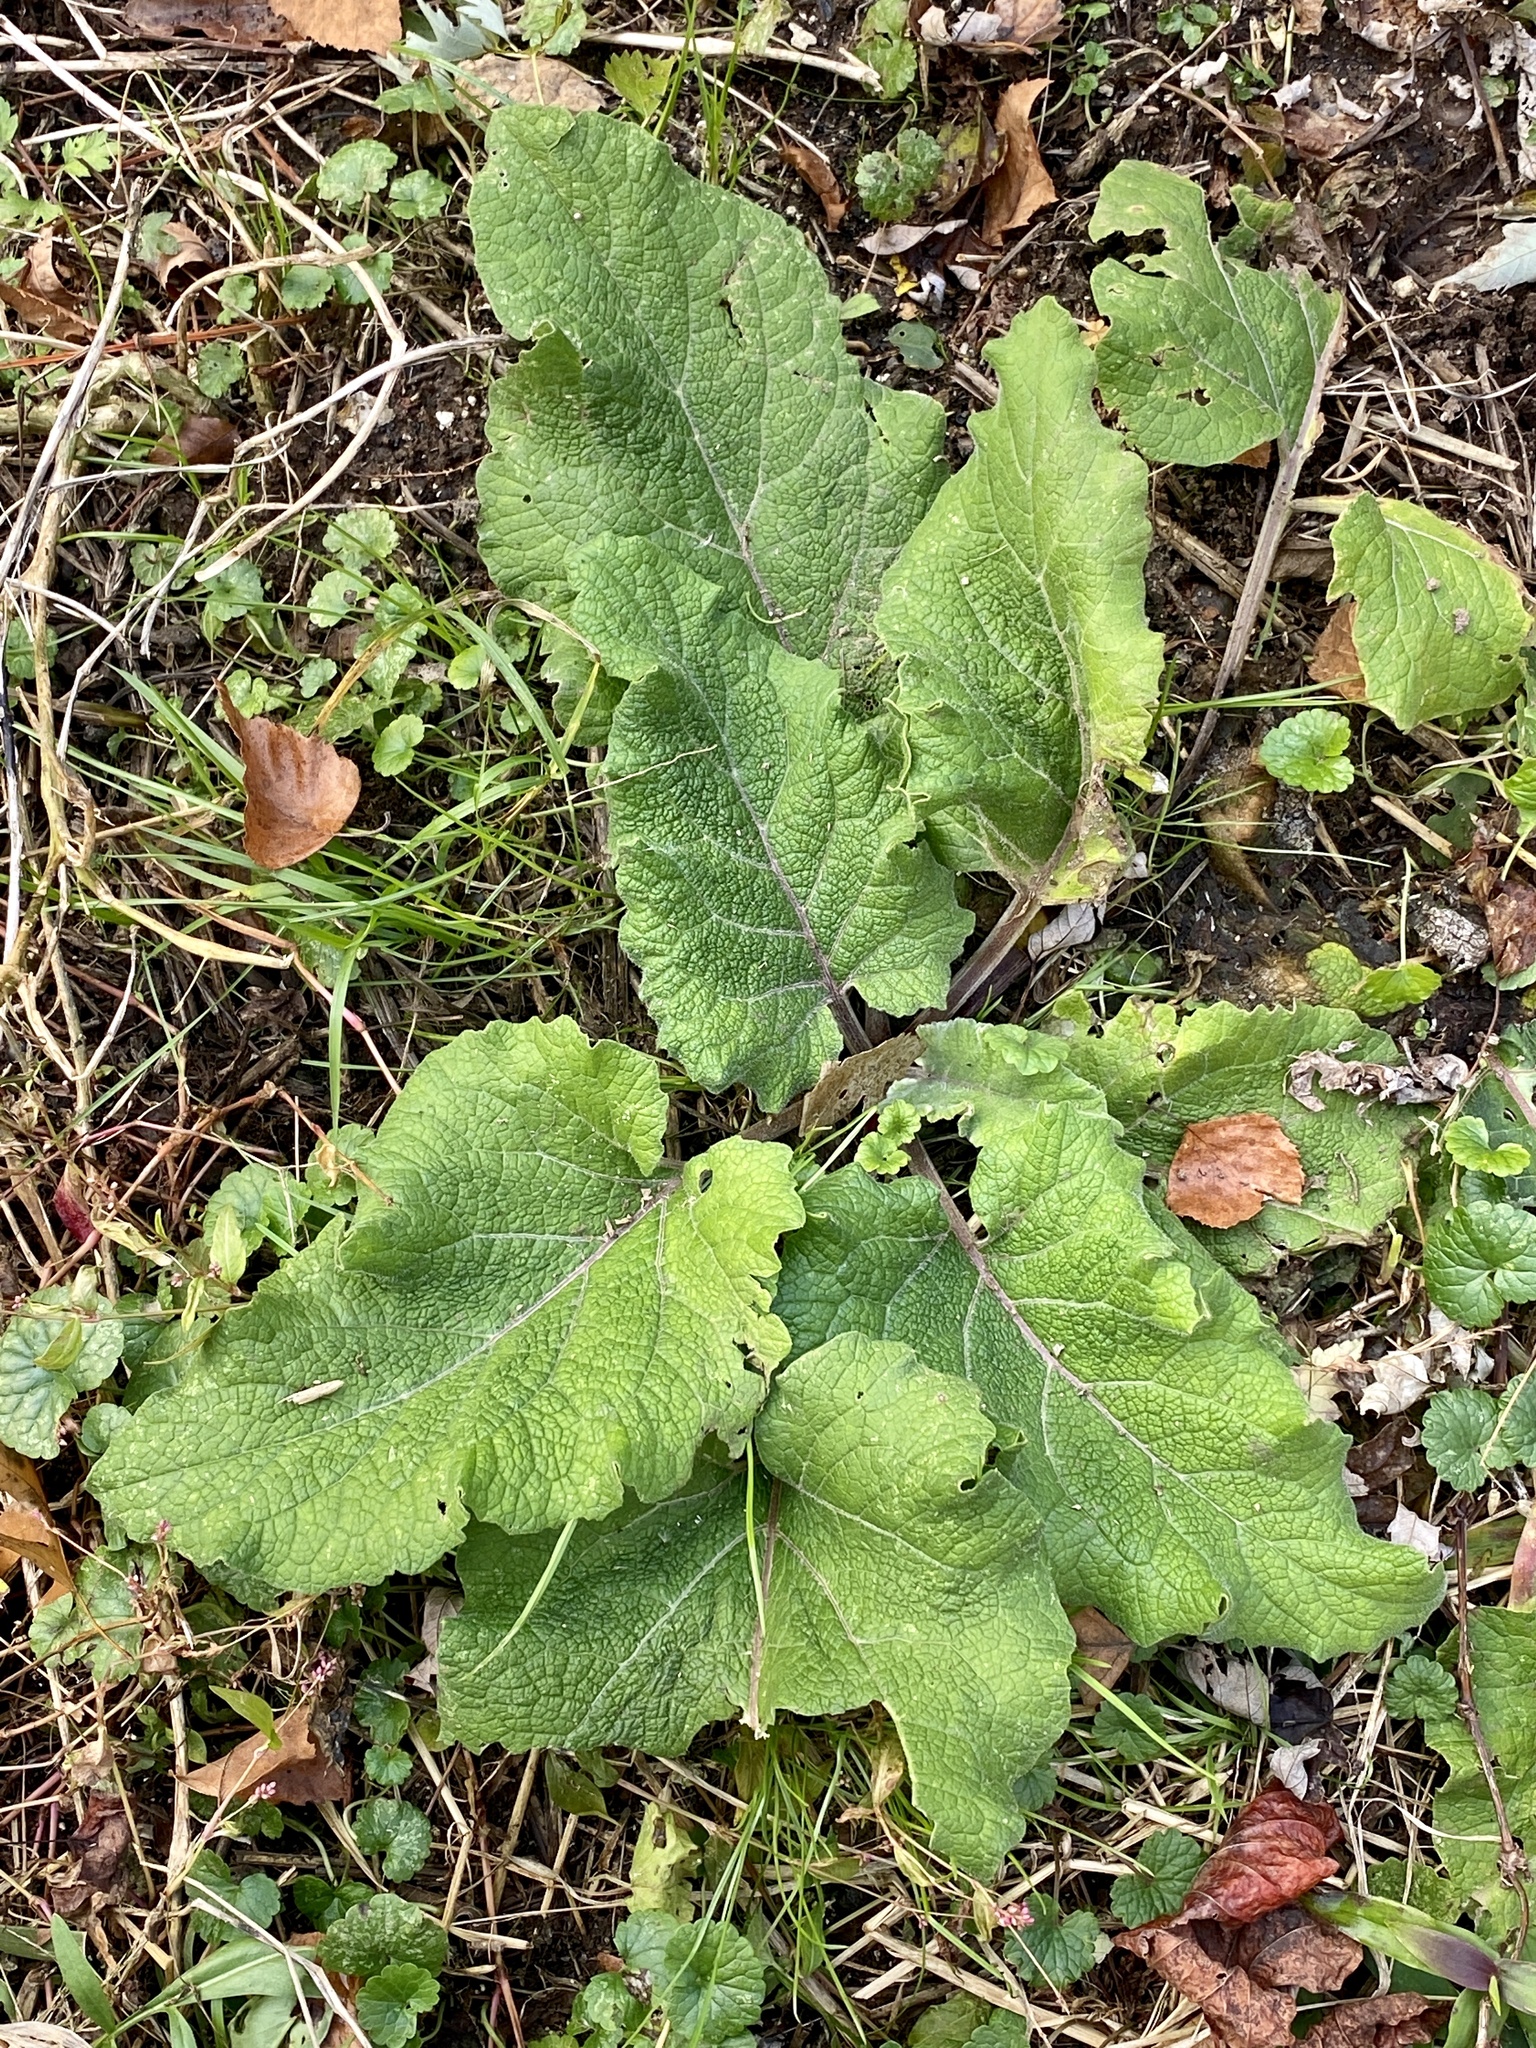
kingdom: Plantae
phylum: Tracheophyta
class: Magnoliopsida
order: Asterales
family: Asteraceae
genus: Arctium
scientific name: Arctium minus
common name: Lesser burdock
